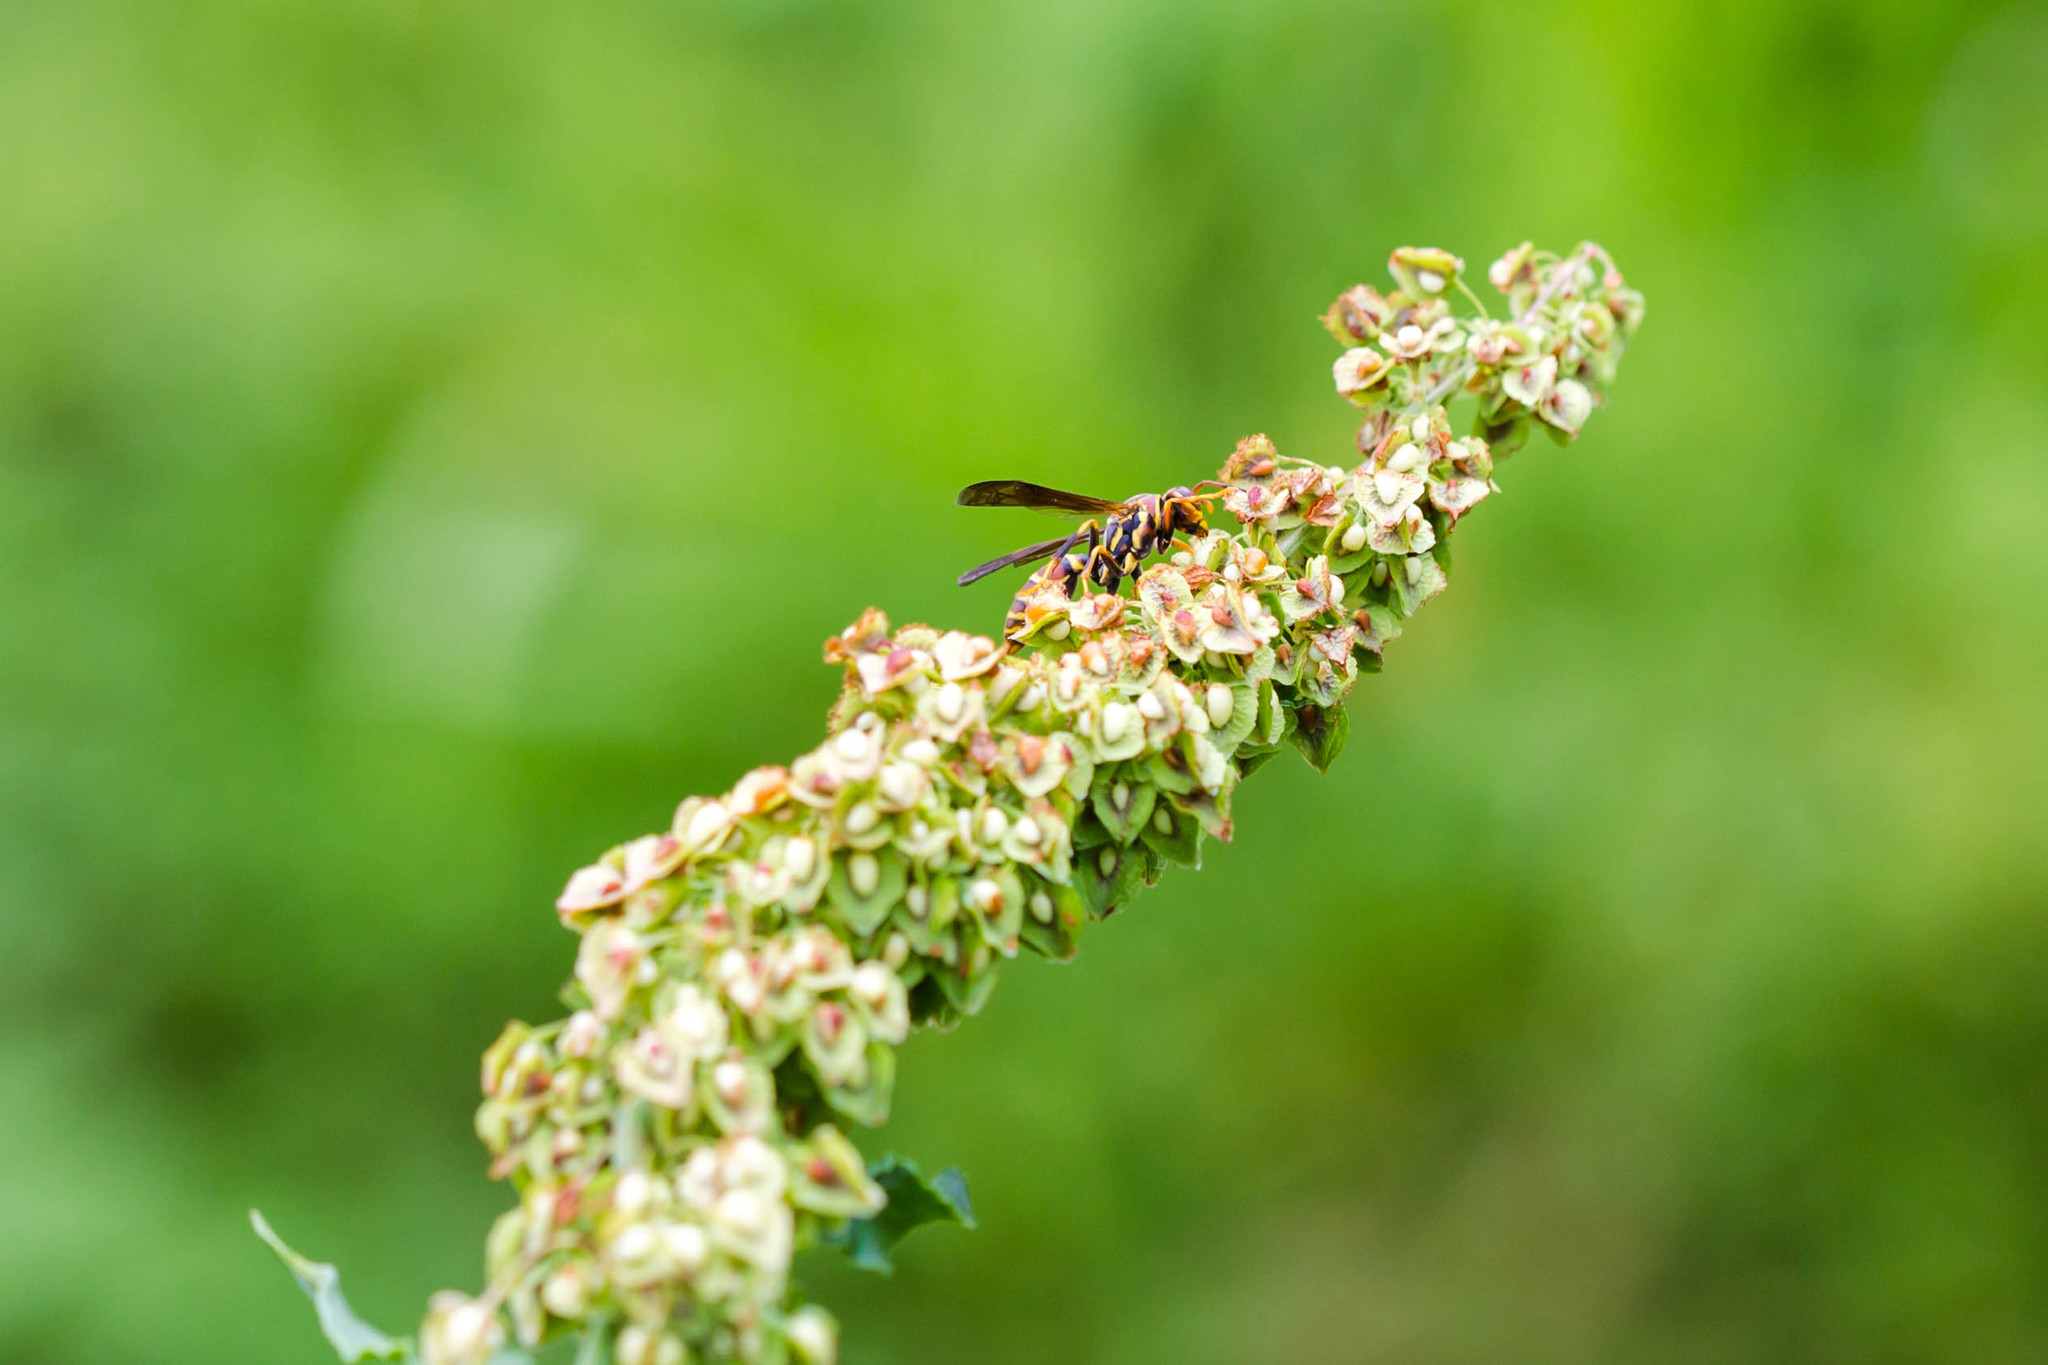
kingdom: Animalia
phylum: Arthropoda
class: Insecta
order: Hymenoptera
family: Eumenidae
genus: Polistes
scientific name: Polistes exclamans
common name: Paper wasp
